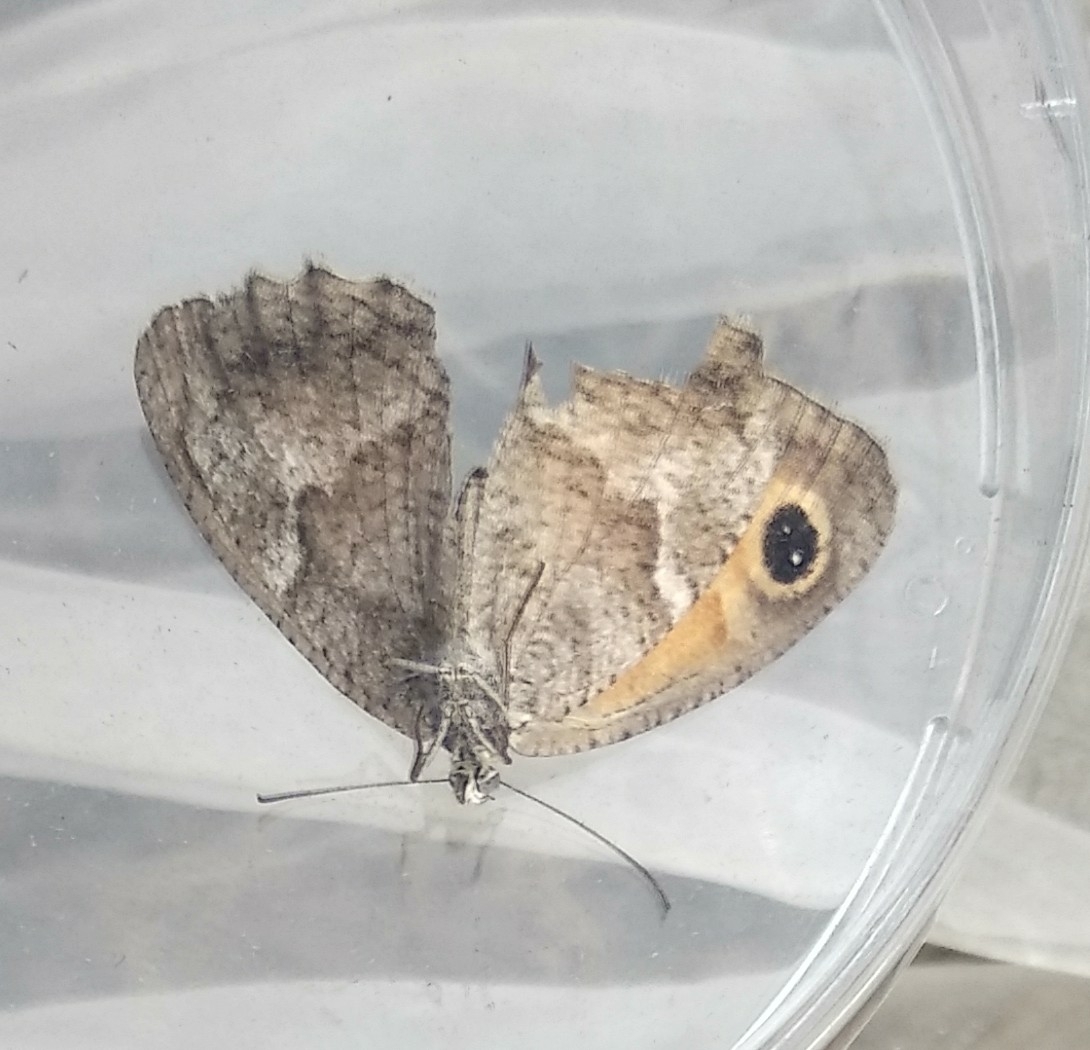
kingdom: Animalia
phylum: Arthropoda
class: Insecta
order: Lepidoptera
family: Nymphalidae
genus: Pyronia
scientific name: Pyronia cecilia
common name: Southern gatekeeper
